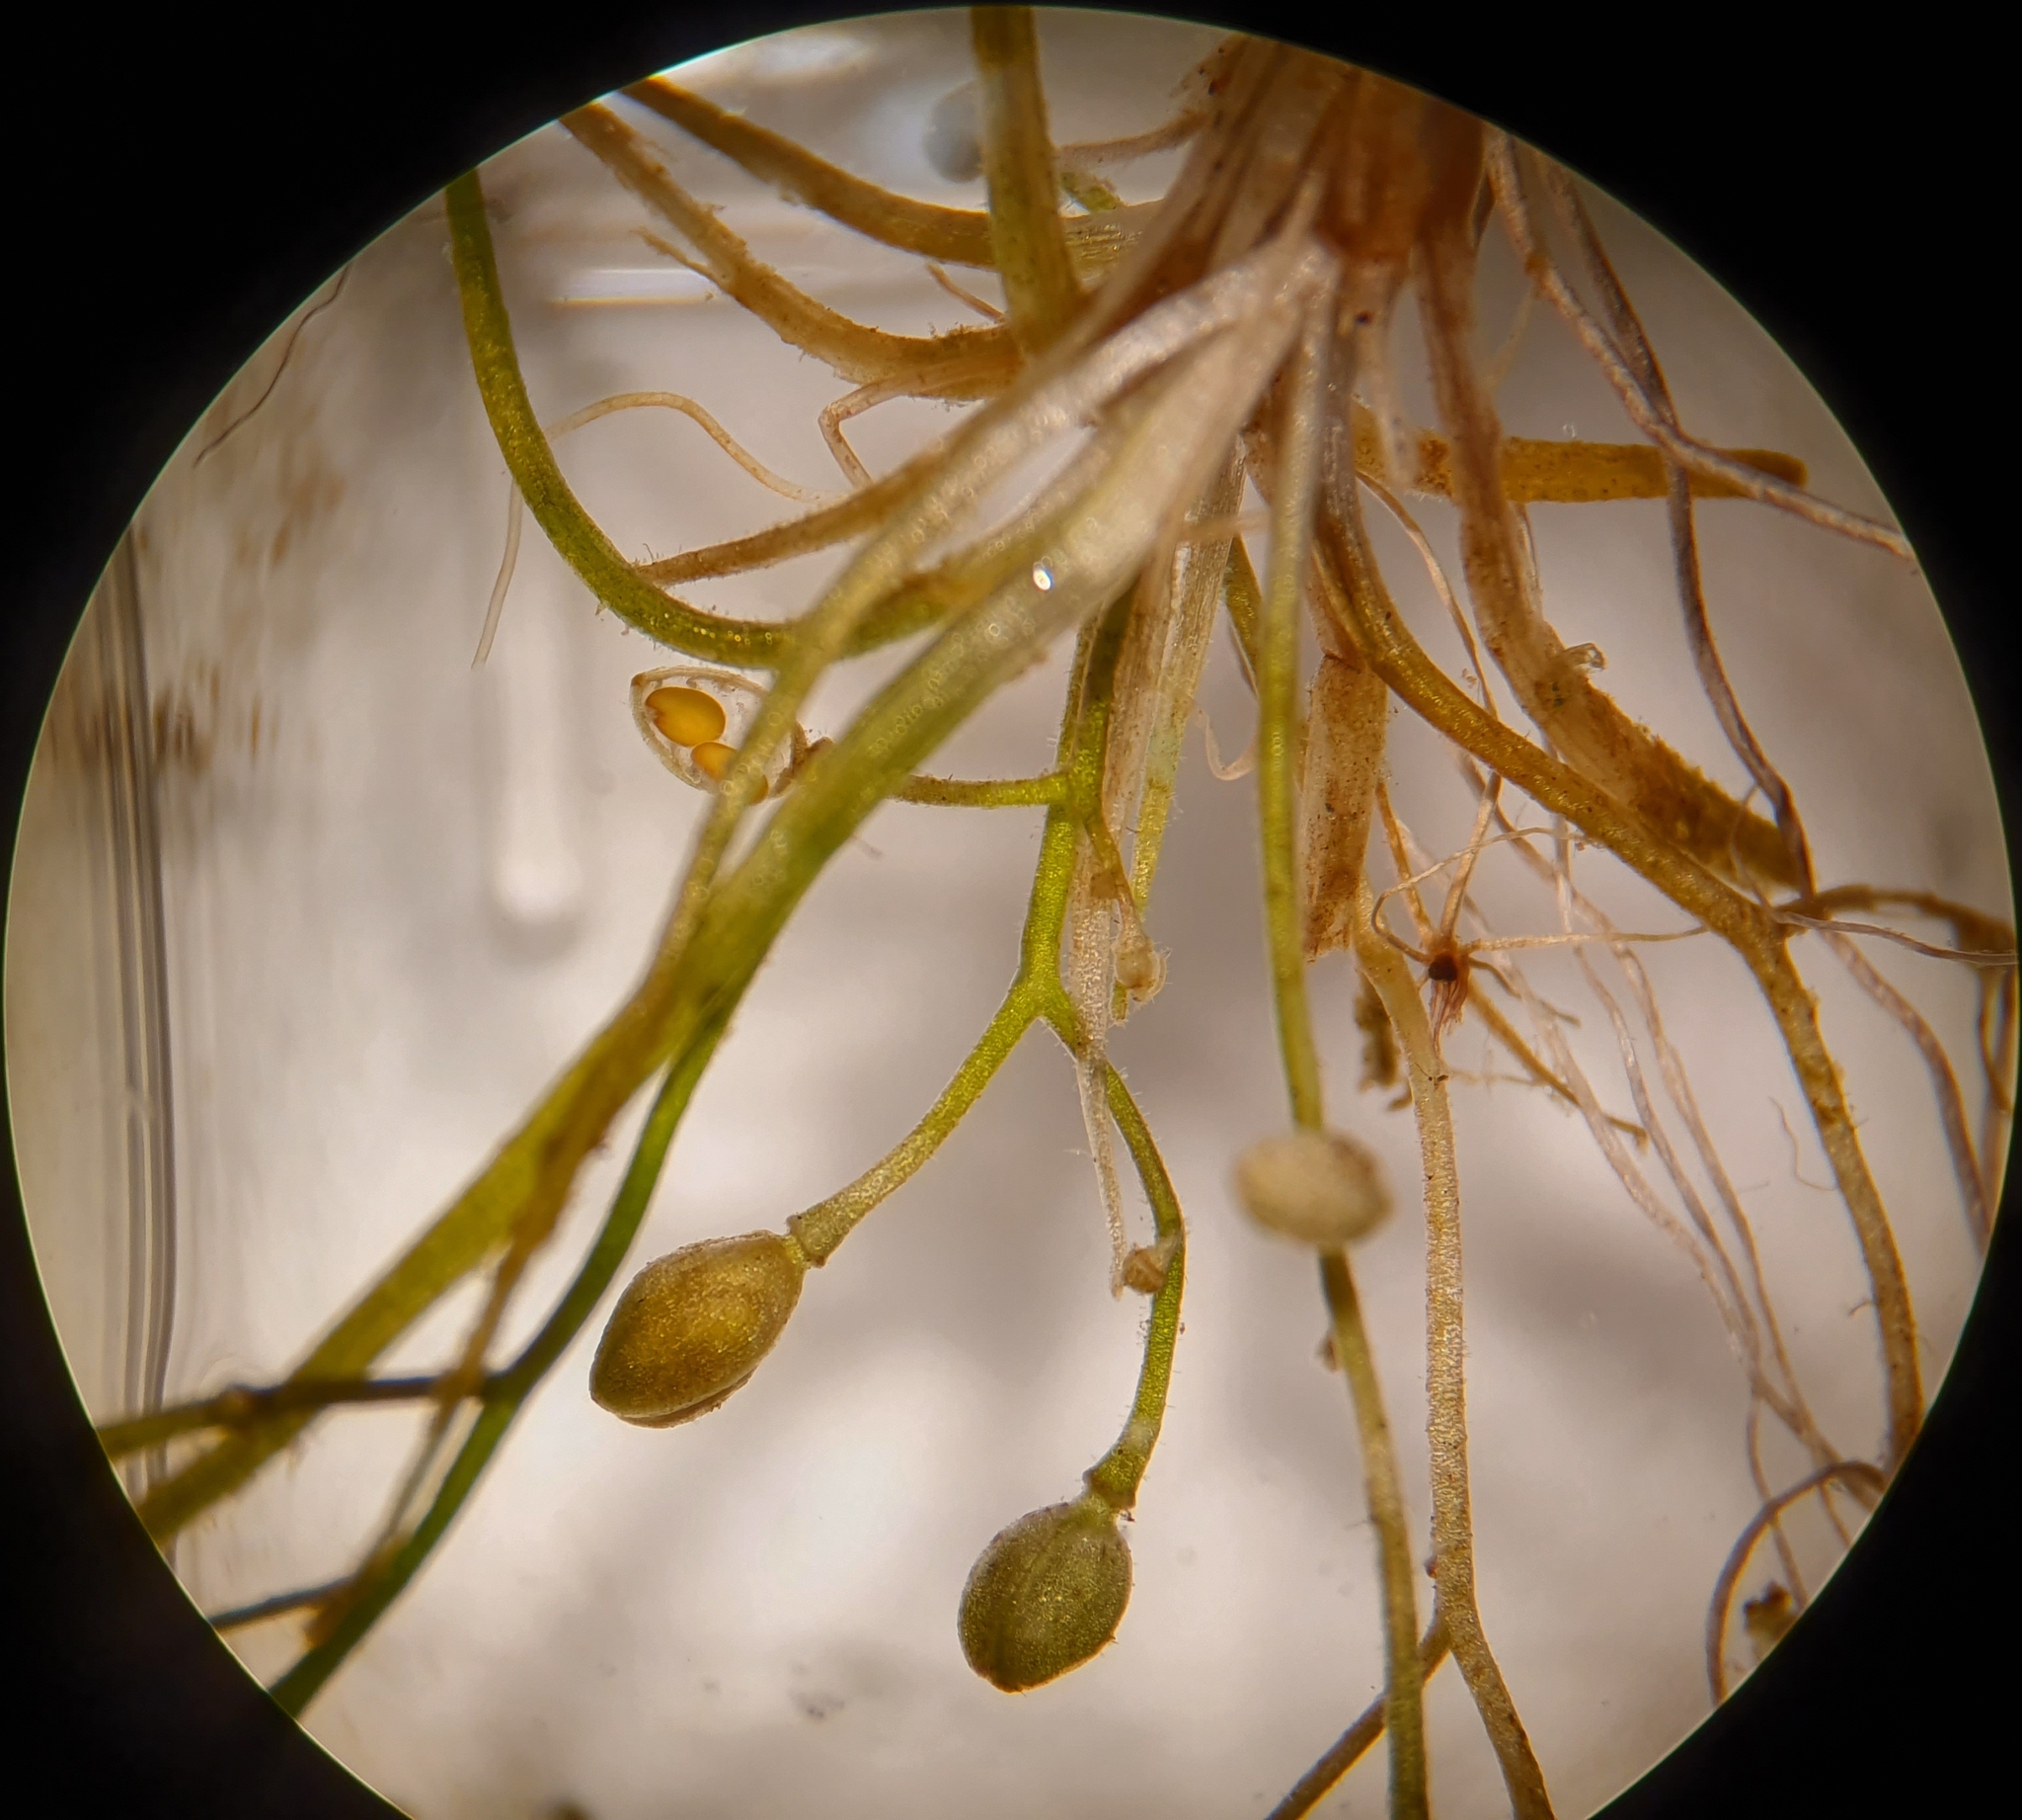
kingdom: Plantae
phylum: Tracheophyta
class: Magnoliopsida
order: Brassicales
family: Brassicaceae
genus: Subularia
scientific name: Subularia aquatica
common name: Awlwort
